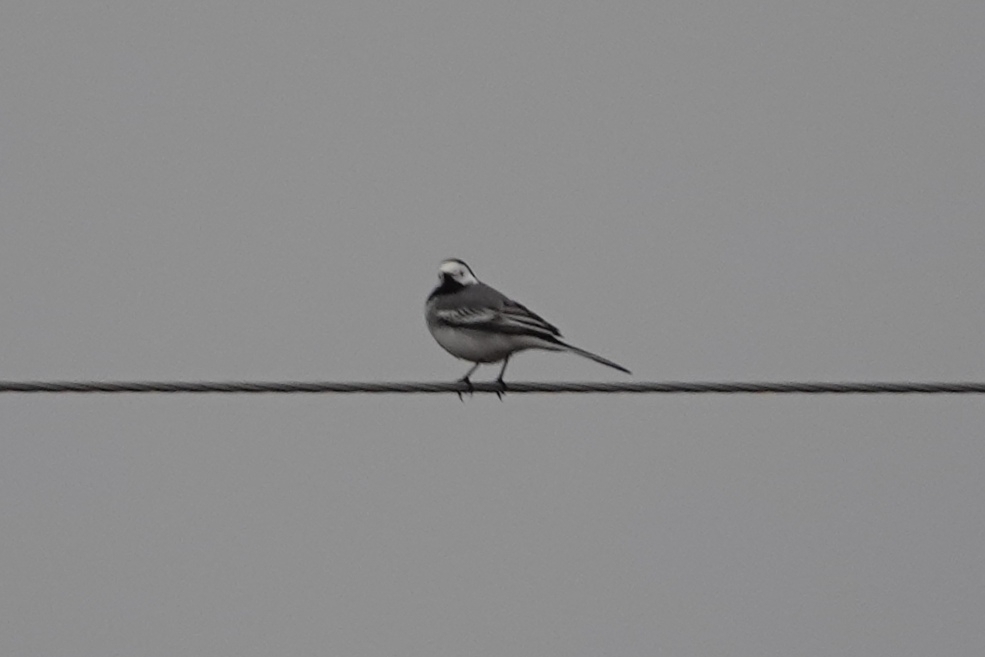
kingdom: Animalia
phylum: Chordata
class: Aves
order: Passeriformes
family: Motacillidae
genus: Motacilla
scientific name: Motacilla alba
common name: White wagtail
